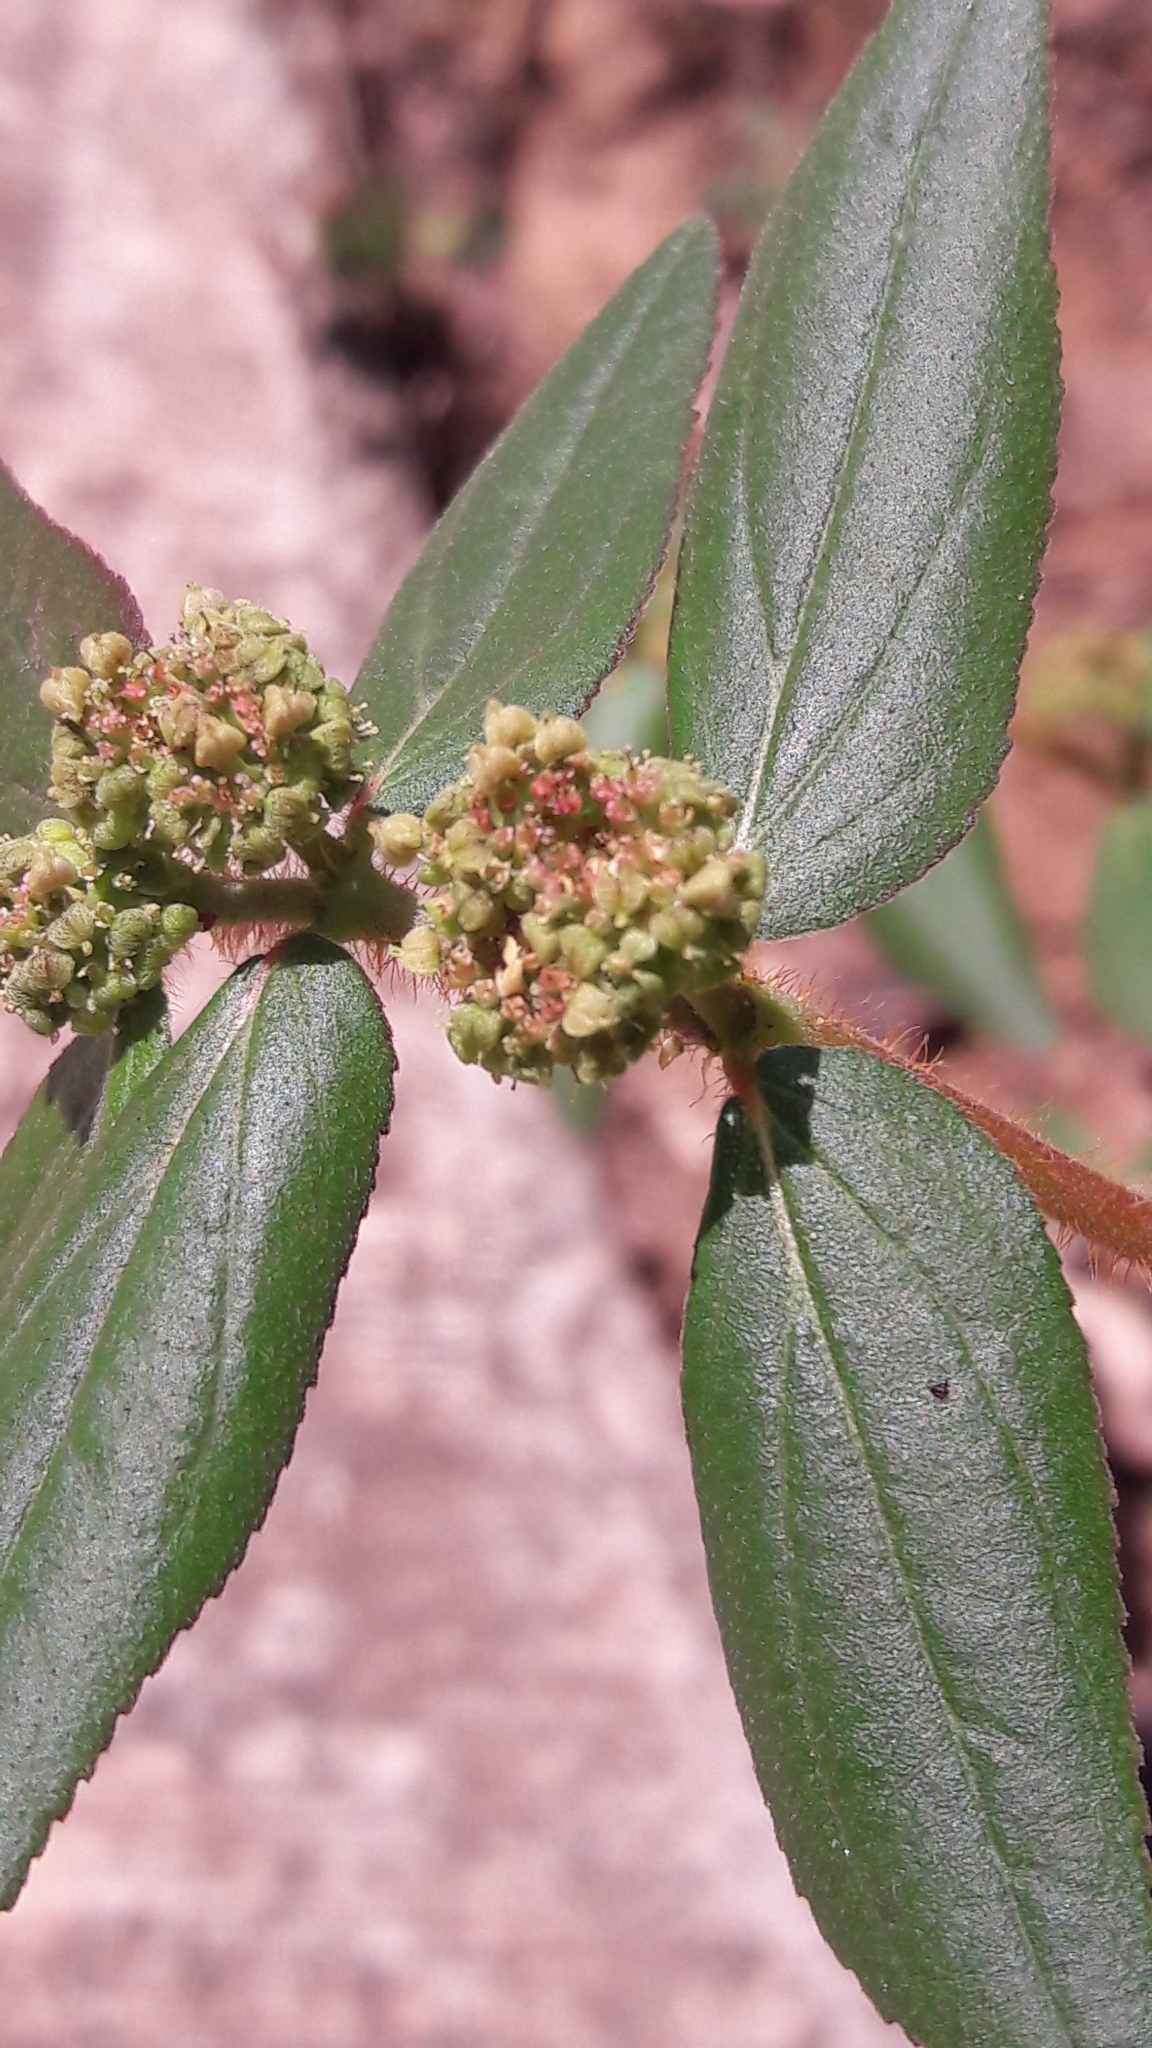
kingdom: Plantae
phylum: Tracheophyta
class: Magnoliopsida
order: Malpighiales
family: Euphorbiaceae
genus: Euphorbia
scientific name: Euphorbia hirta
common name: Pillpod sandmat
